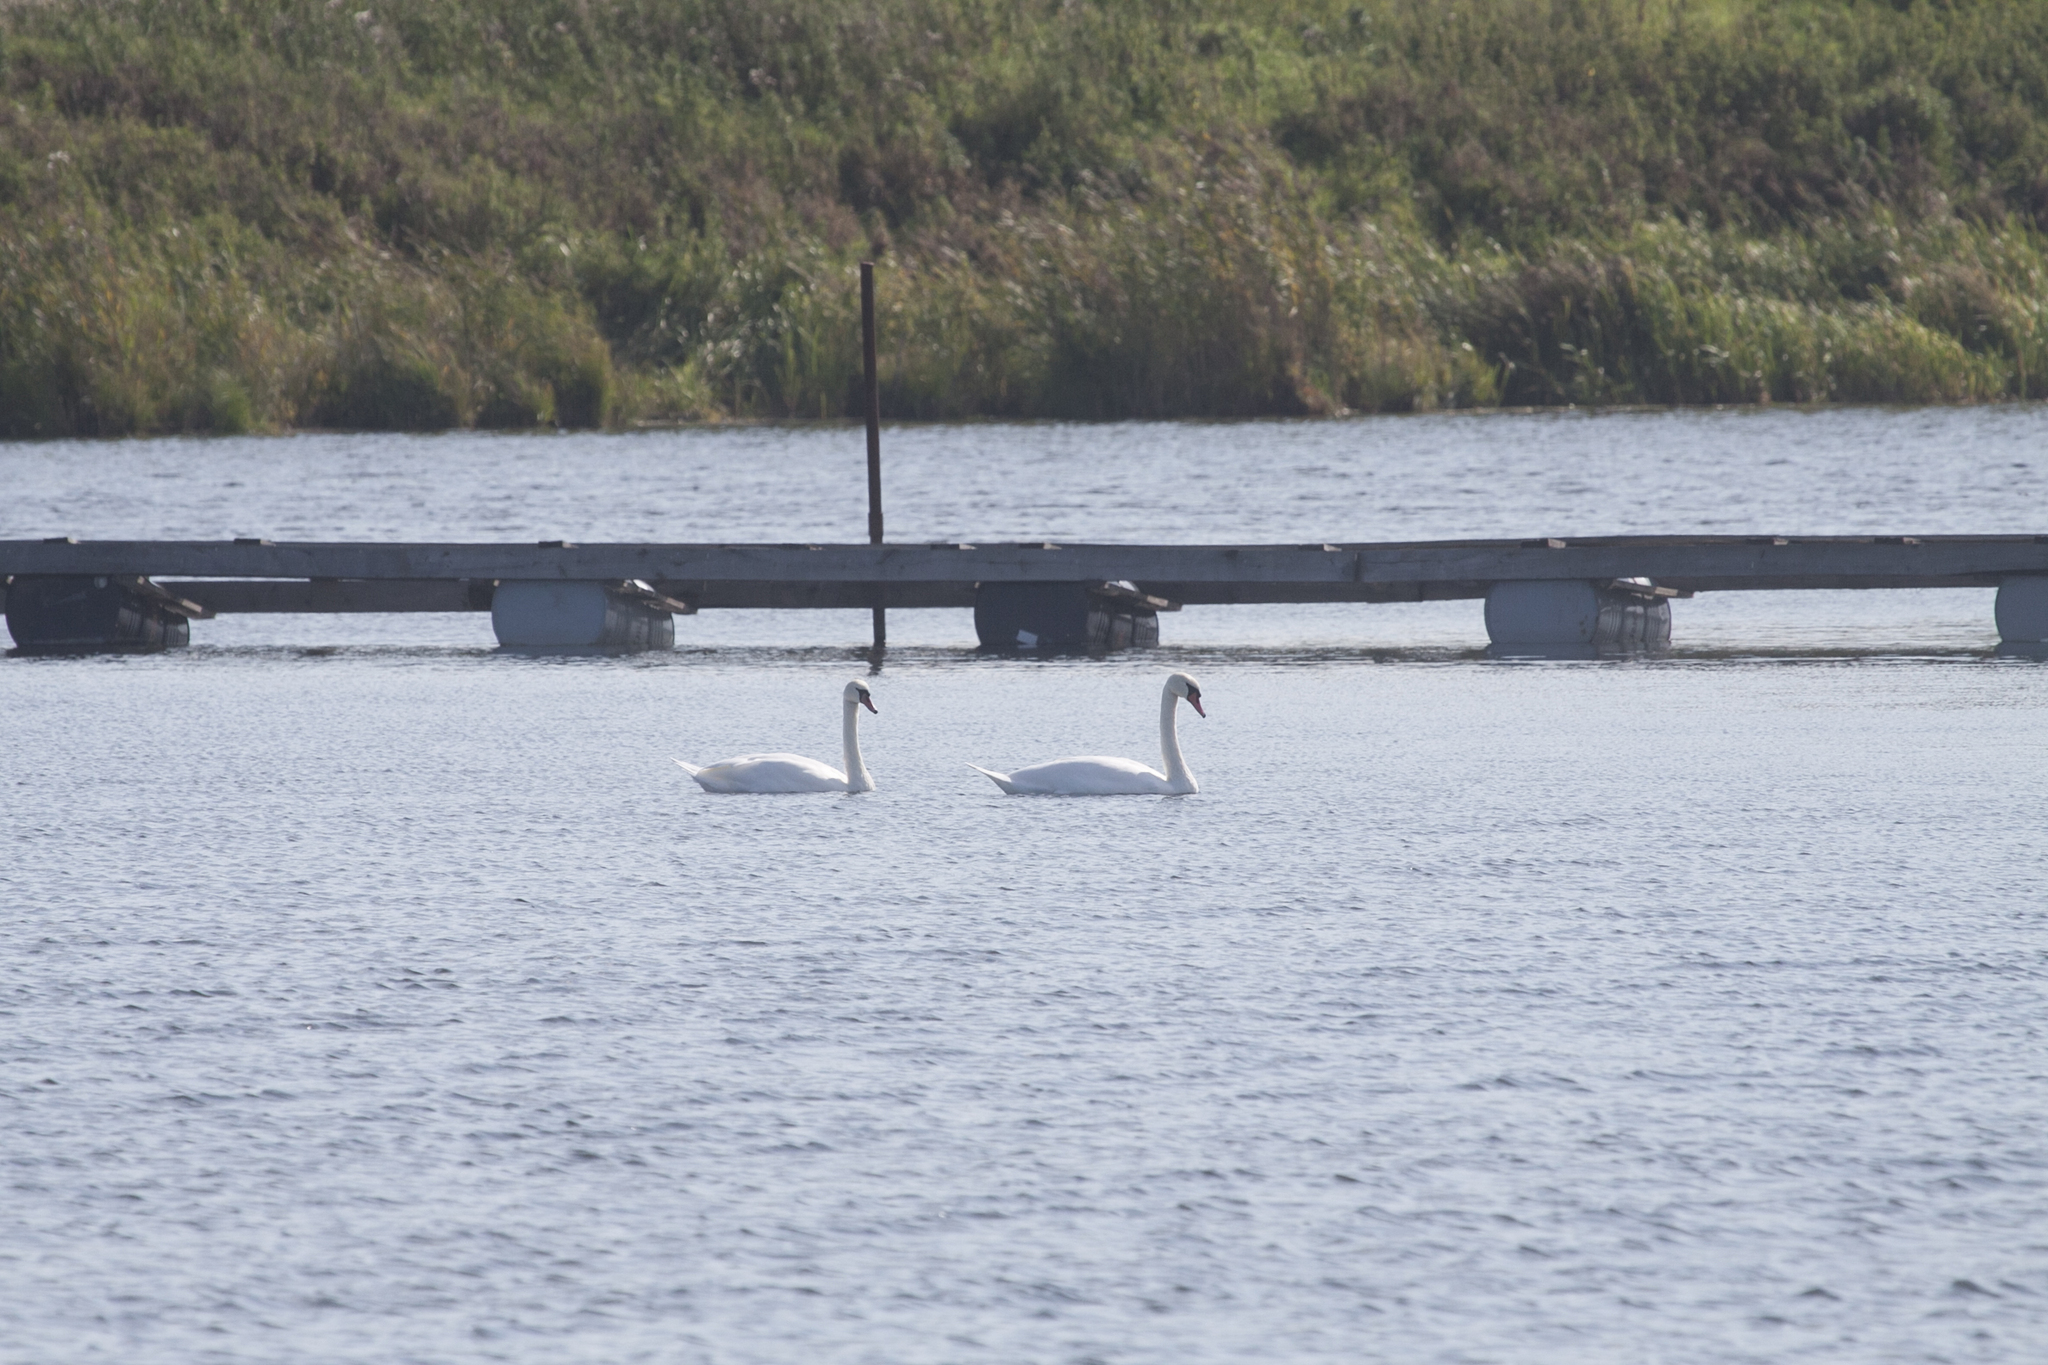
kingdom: Animalia
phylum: Chordata
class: Aves
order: Anseriformes
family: Anatidae
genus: Cygnus
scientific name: Cygnus olor
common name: Mute swan
